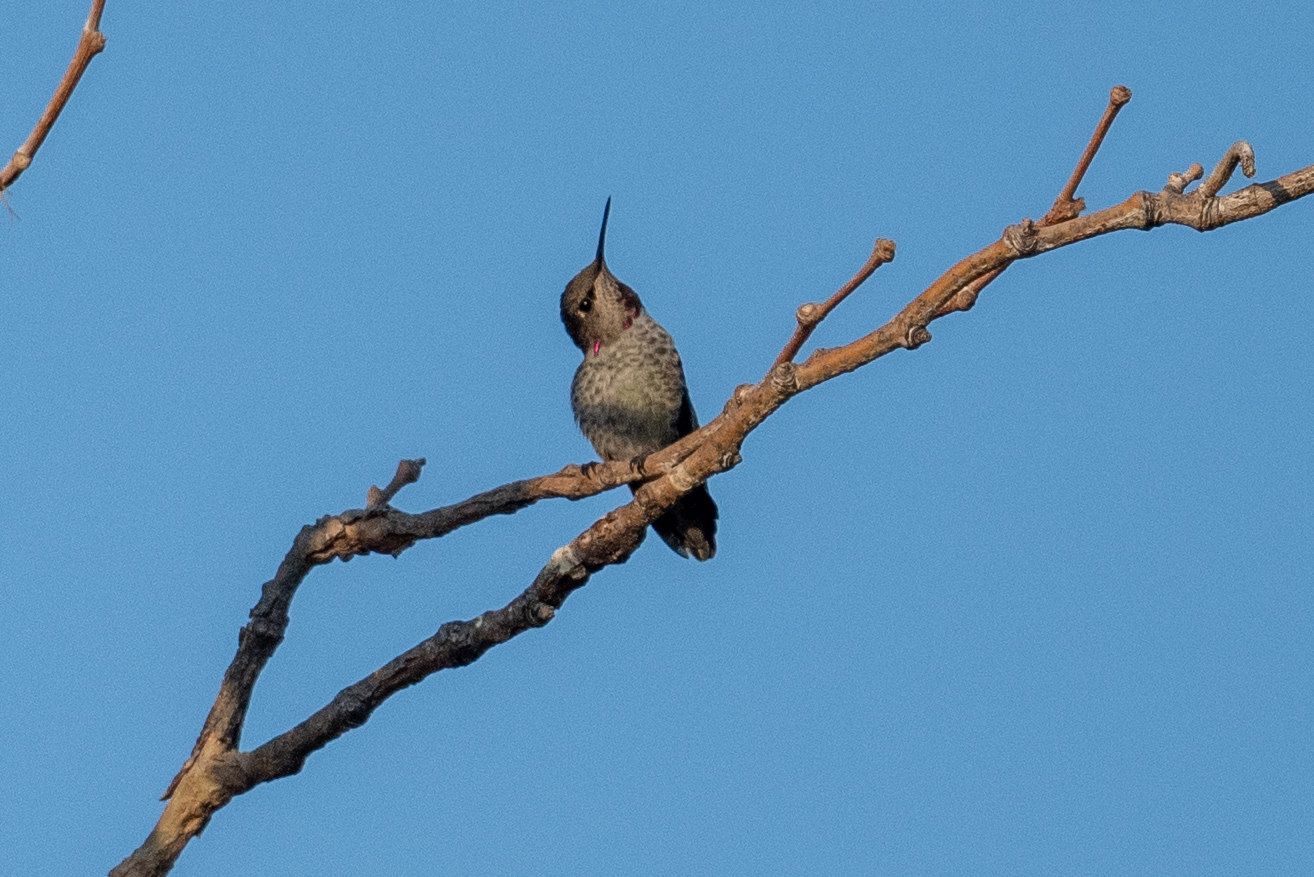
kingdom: Animalia
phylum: Chordata
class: Aves
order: Apodiformes
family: Trochilidae
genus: Calypte
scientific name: Calypte anna
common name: Anna's hummingbird
